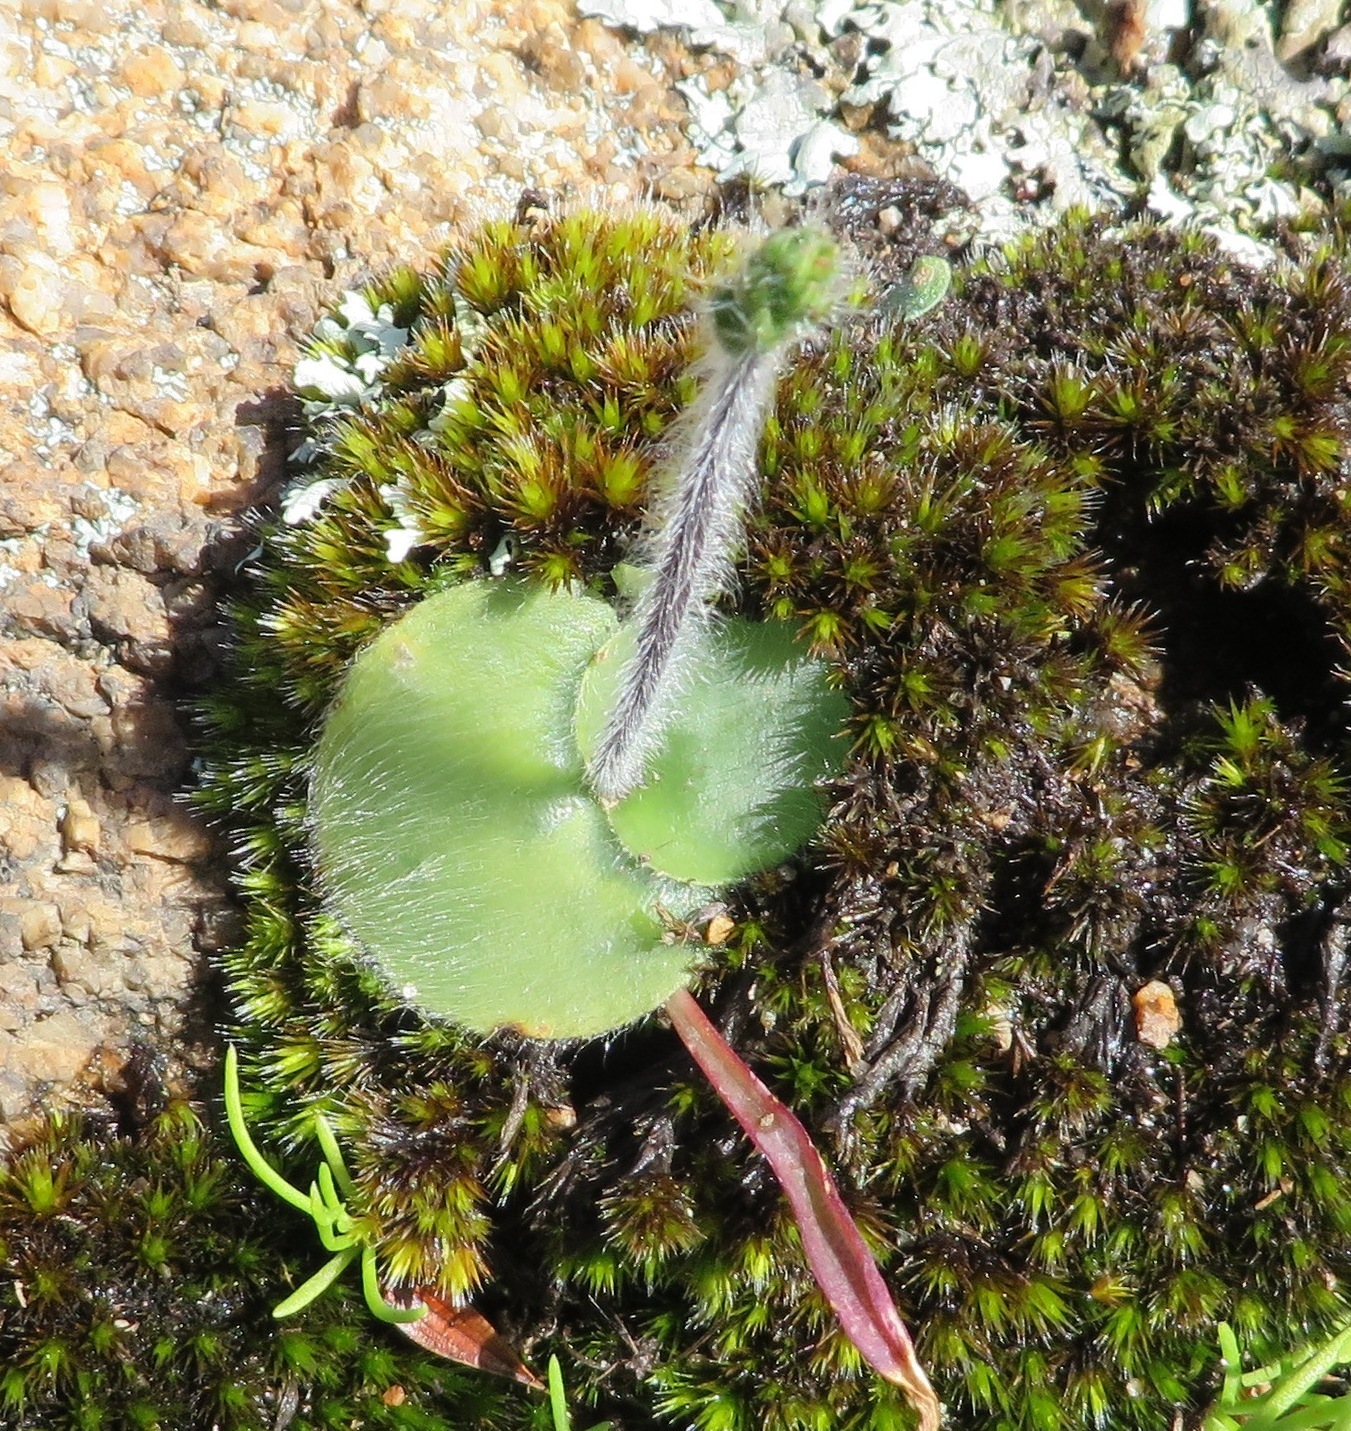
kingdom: Plantae
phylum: Tracheophyta
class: Liliopsida
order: Asparagales
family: Orchidaceae
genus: Holothrix
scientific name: Holothrix villosa
